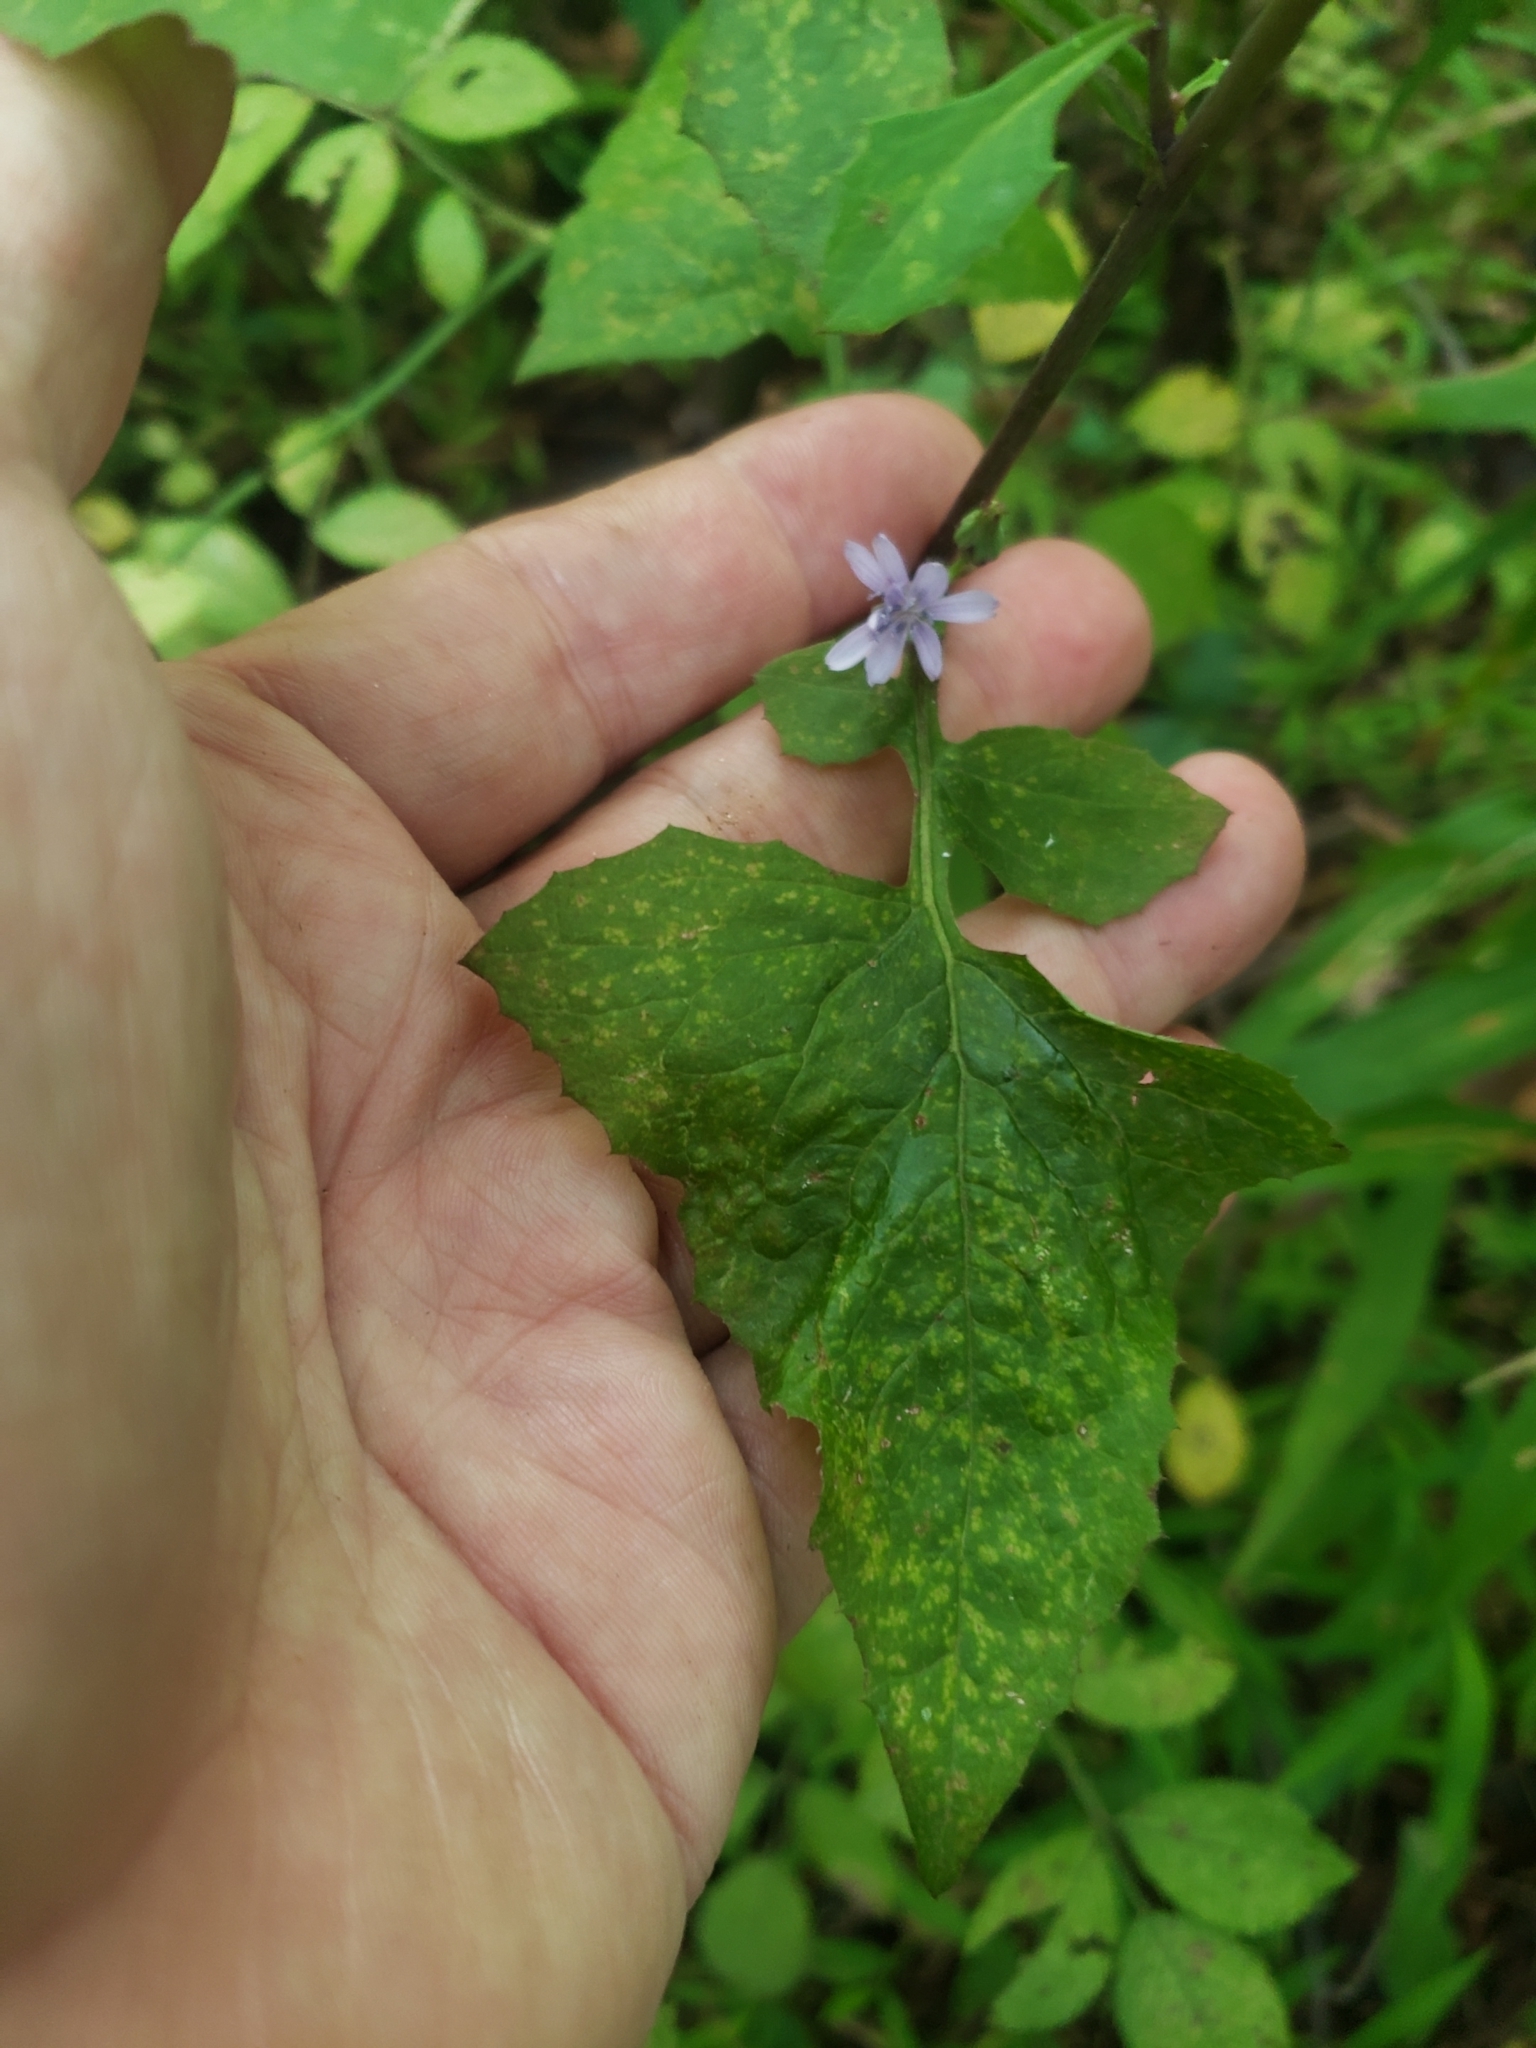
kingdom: Plantae
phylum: Tracheophyta
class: Magnoliopsida
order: Asterales
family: Asteraceae
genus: Lactuca
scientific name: Lactuca floridana
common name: Woodland lettuce
